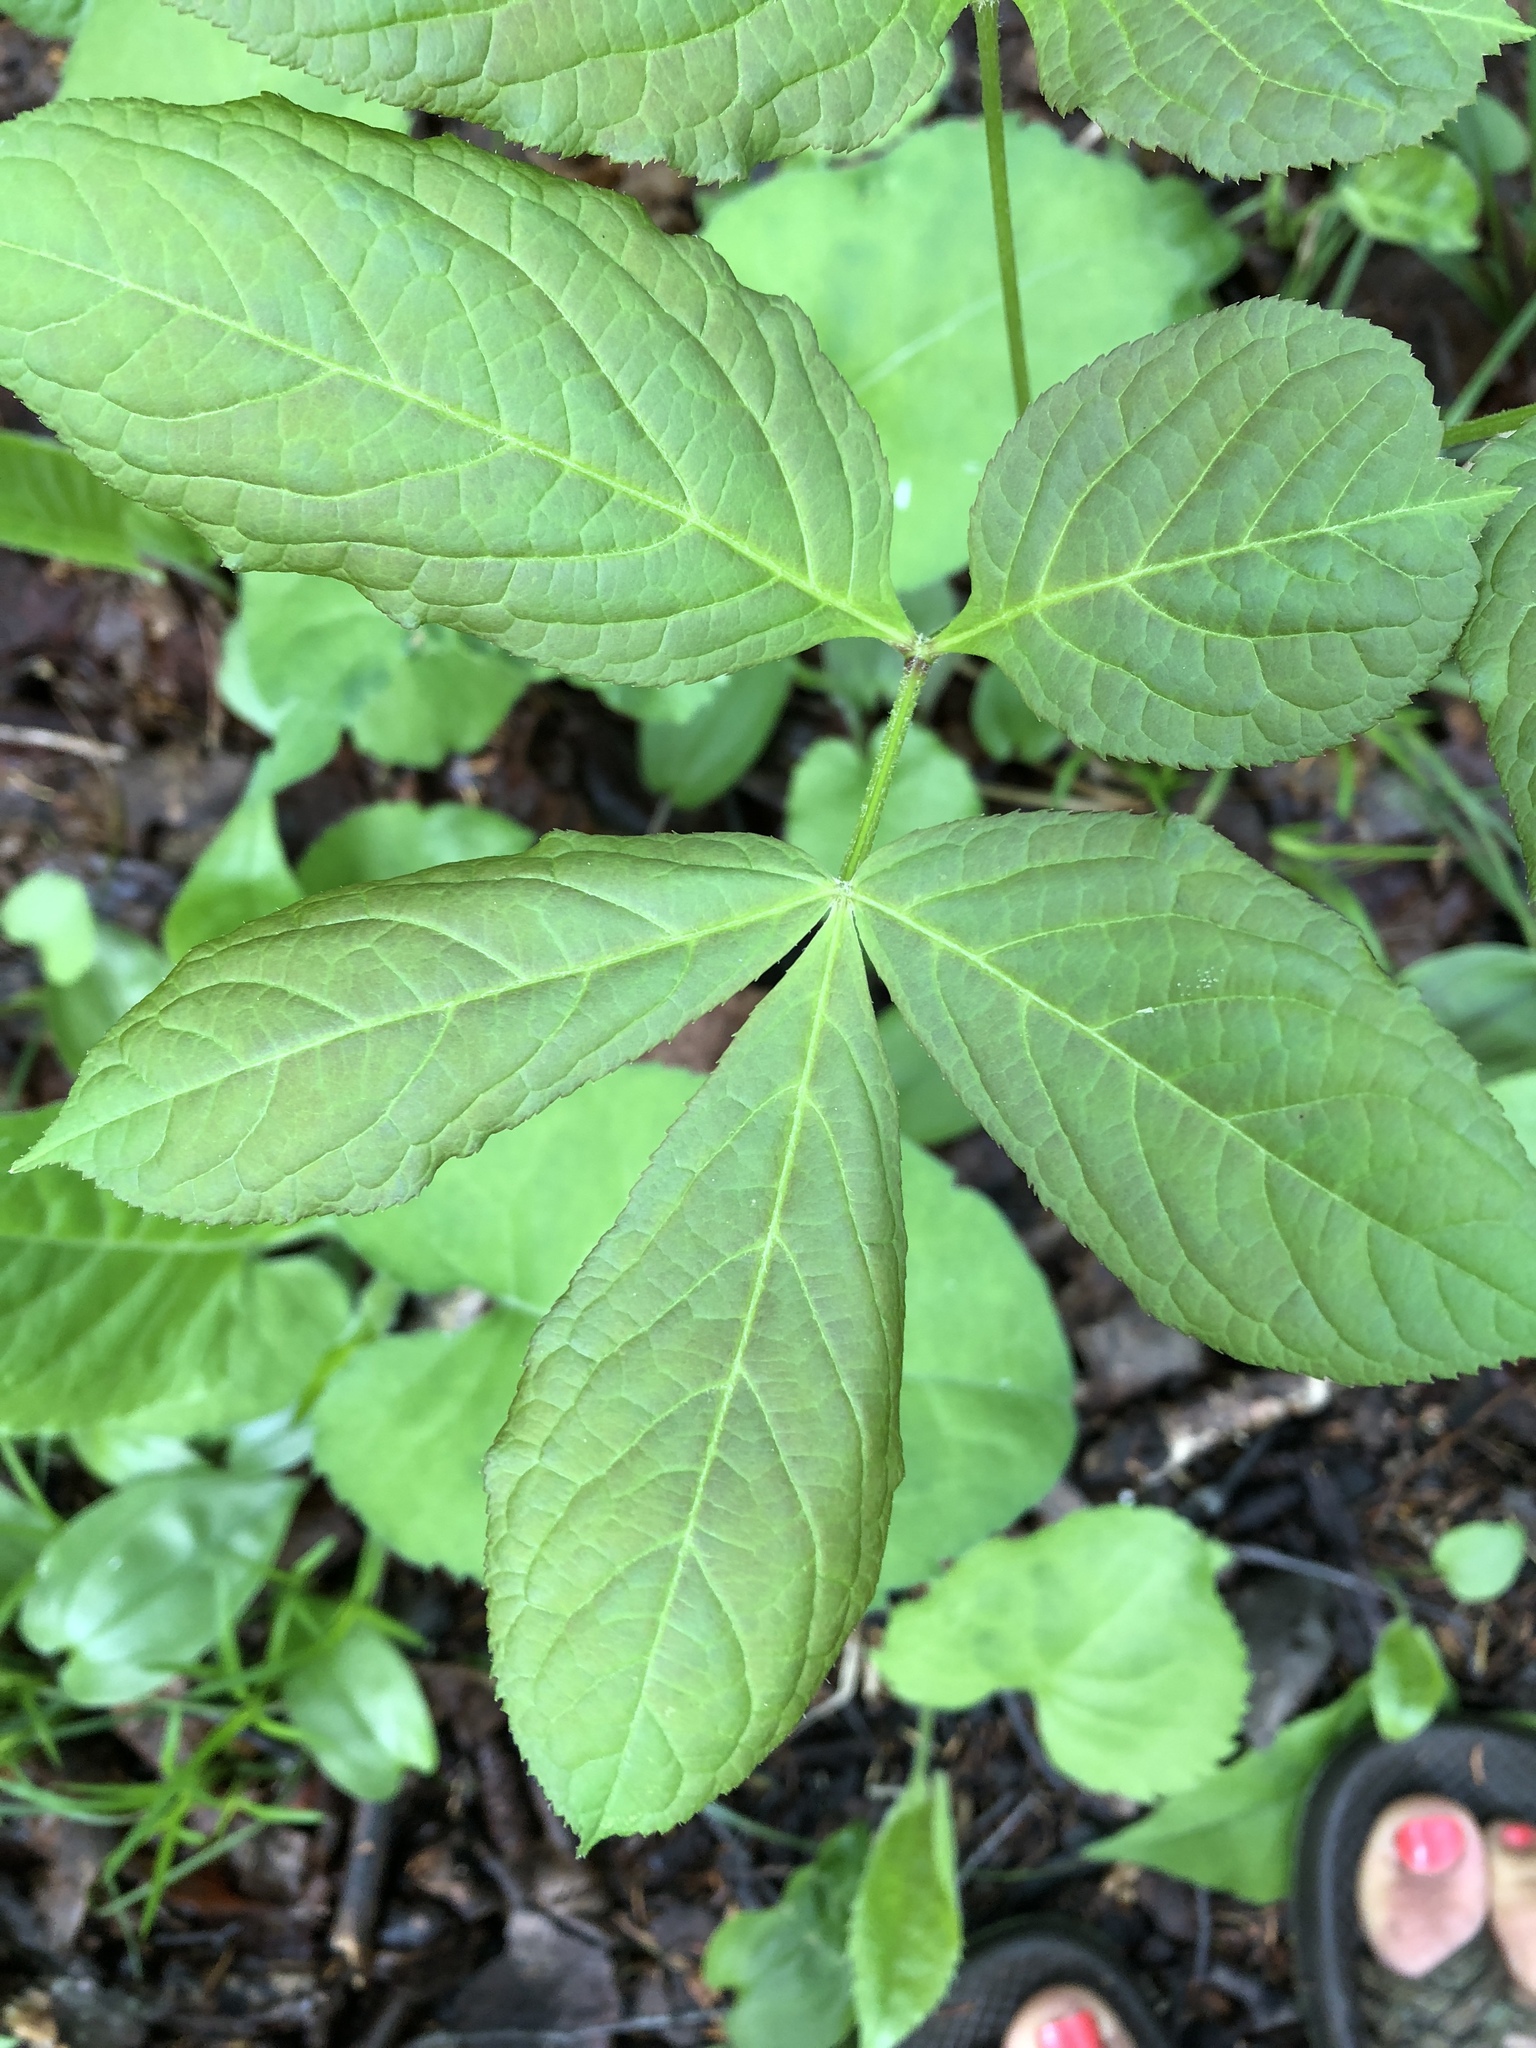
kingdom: Plantae
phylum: Tracheophyta
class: Magnoliopsida
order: Apiales
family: Araliaceae
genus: Aralia
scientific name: Aralia nudicaulis
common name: Wild sarsaparilla
